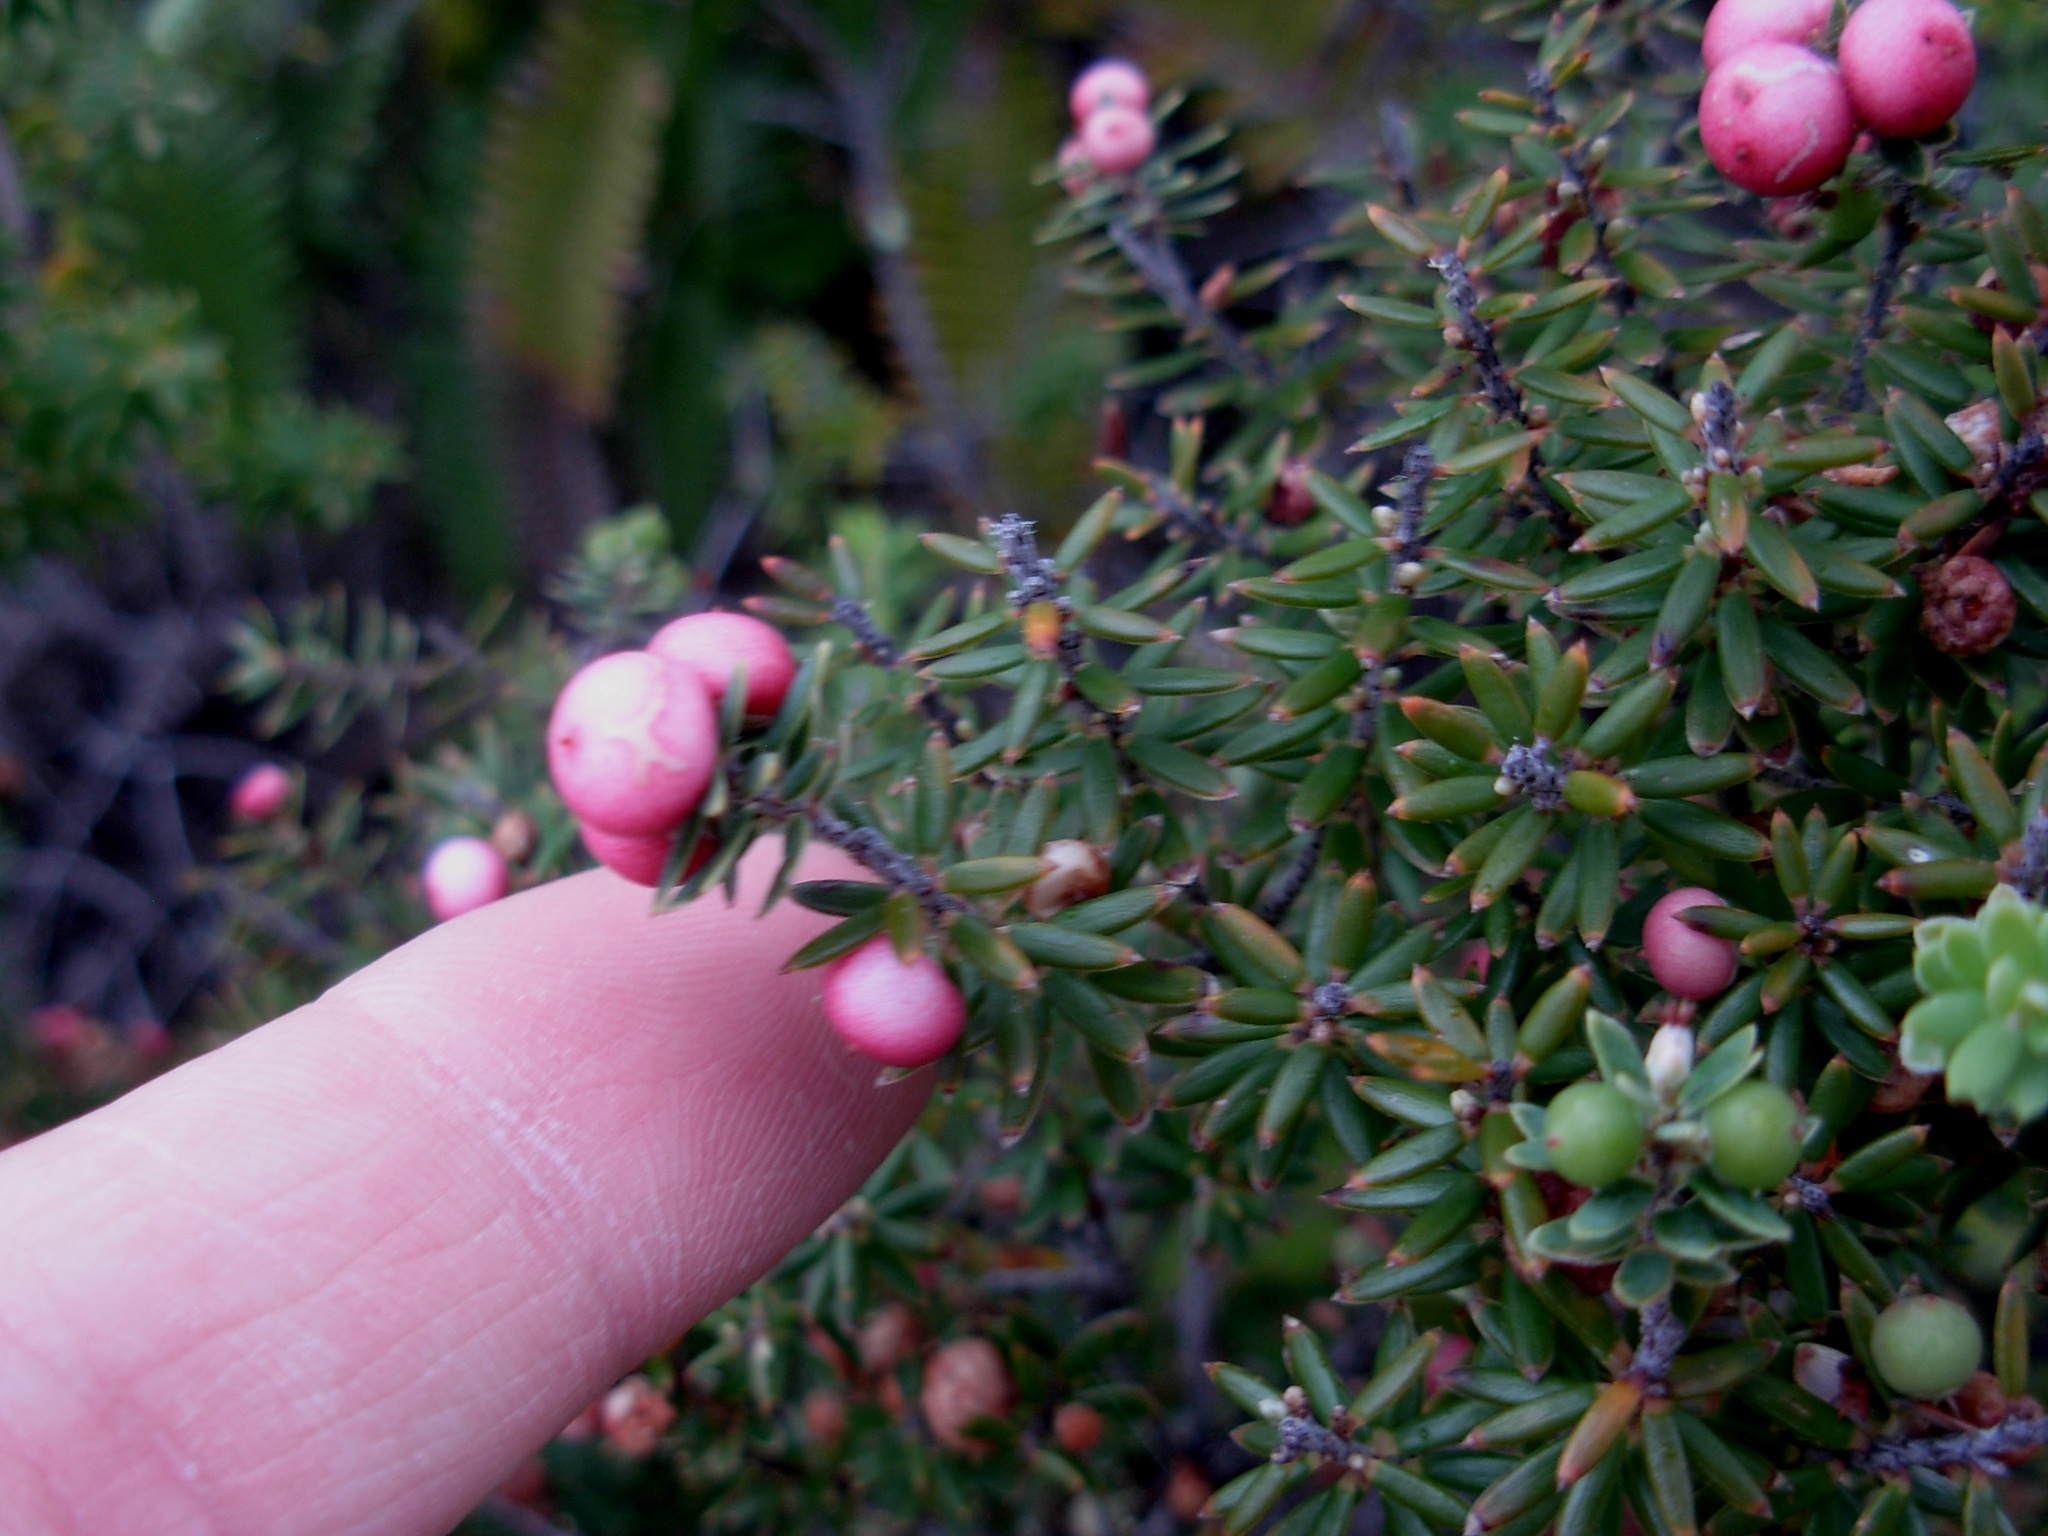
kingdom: Plantae
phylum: Tracheophyta
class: Magnoliopsida
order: Ericales
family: Ericaceae
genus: Leptecophylla
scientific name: Leptecophylla tameiameiae
